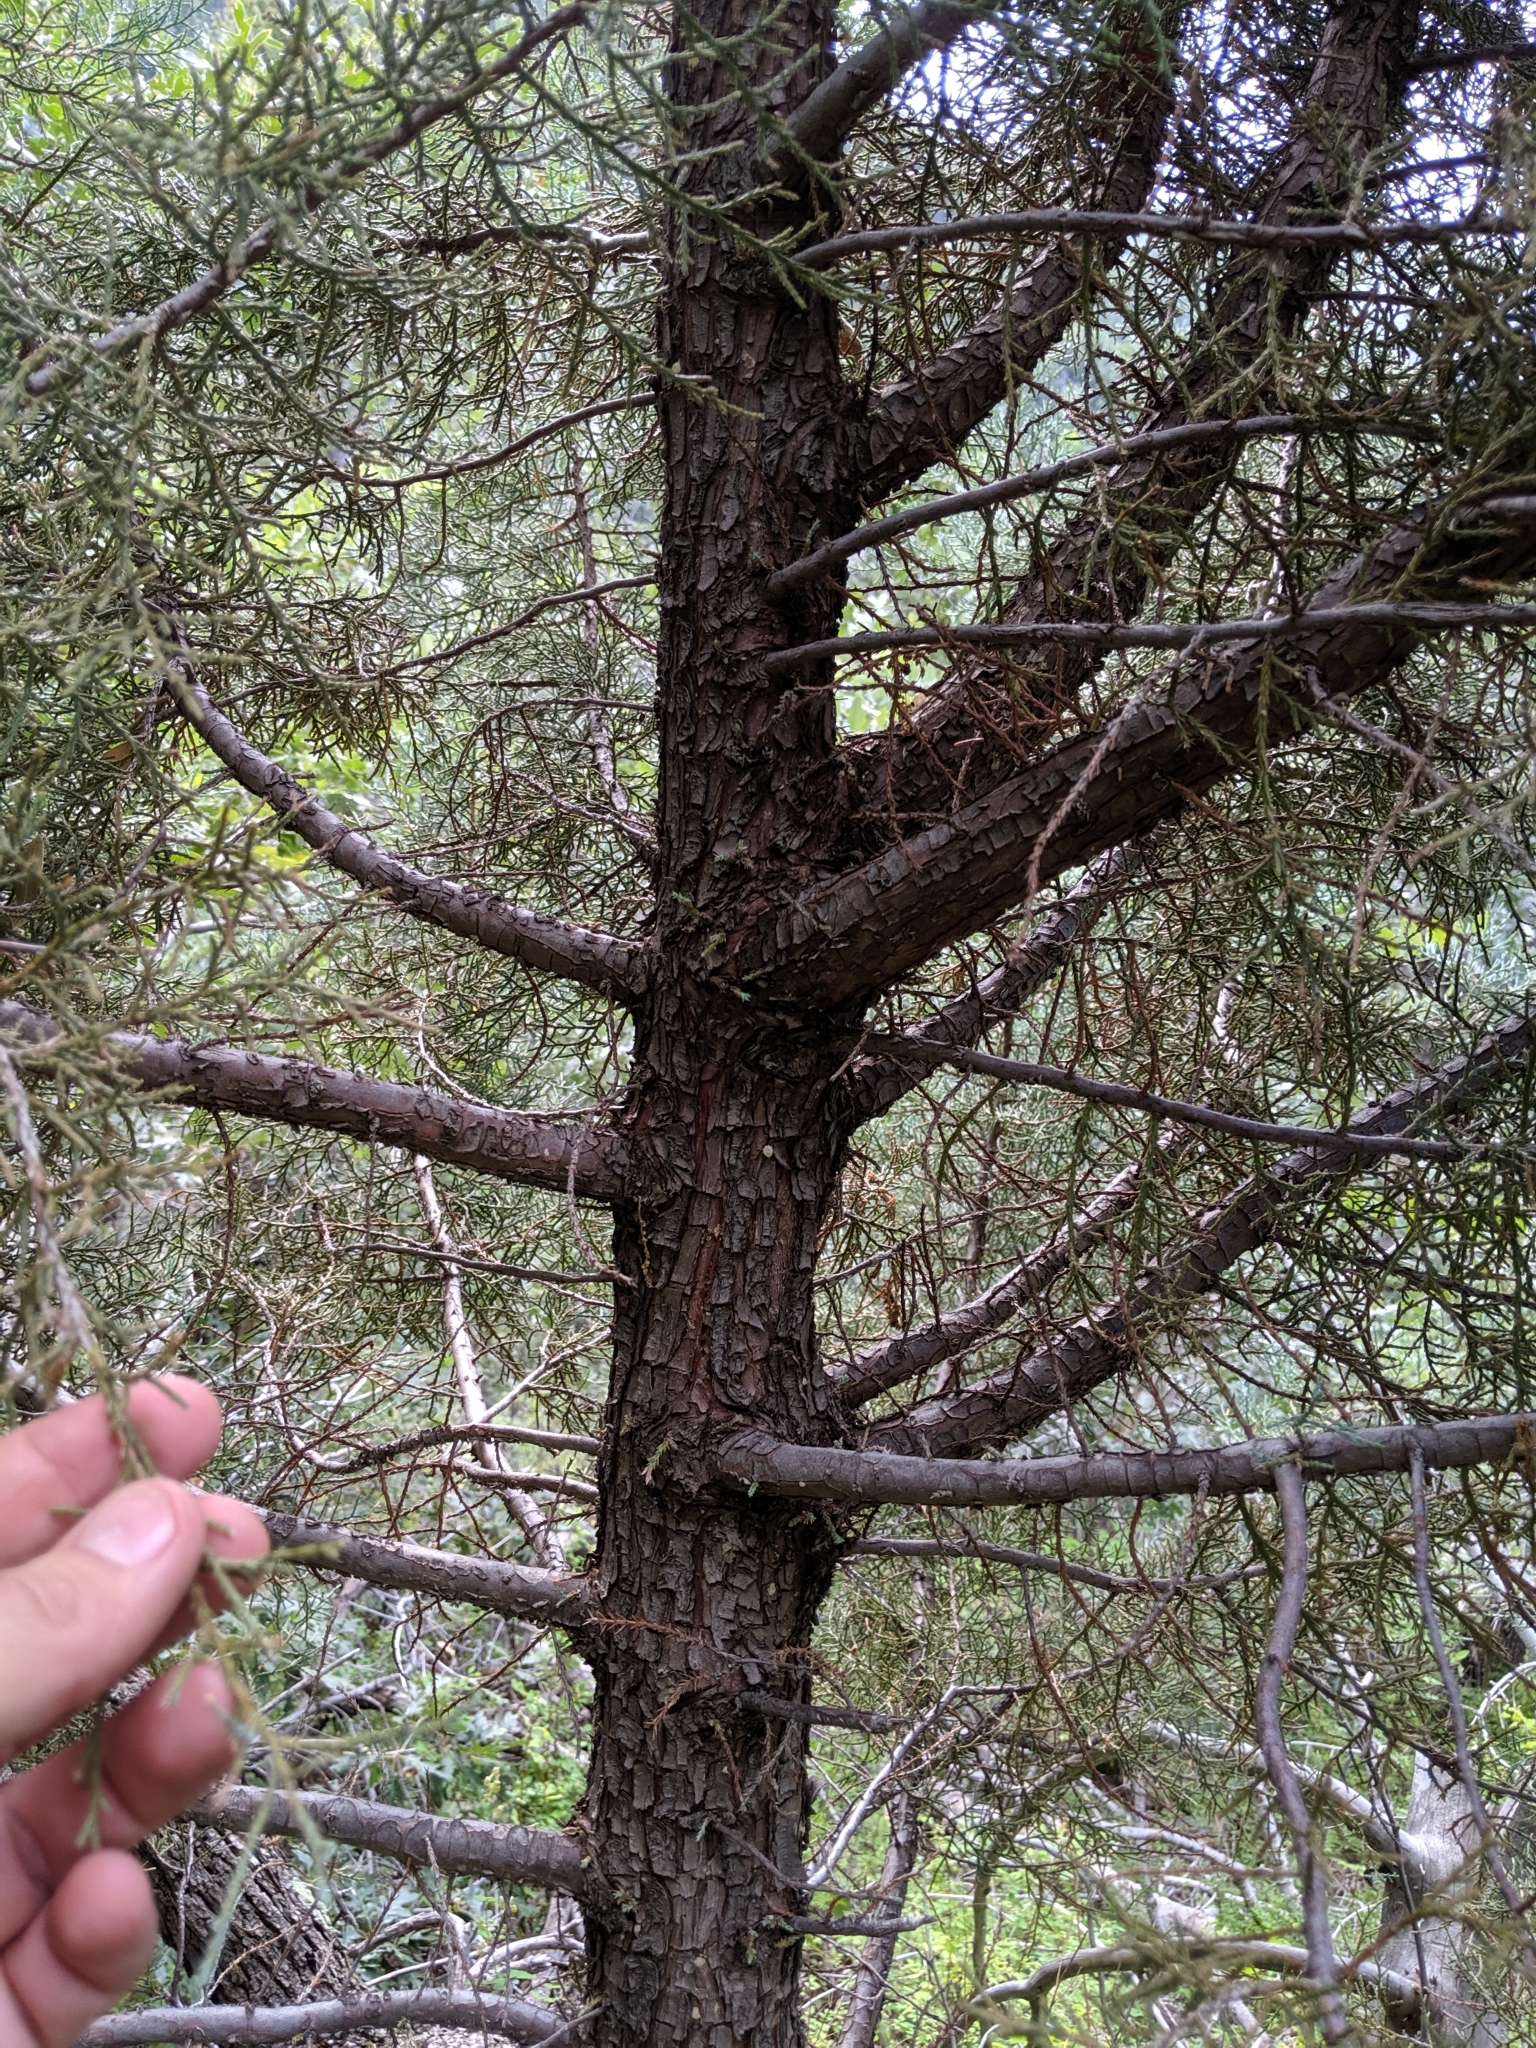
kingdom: Plantae
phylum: Tracheophyta
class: Pinopsida
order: Pinales
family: Cupressaceae
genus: Juniperus
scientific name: Juniperus deppeana
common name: Alligator juniper
